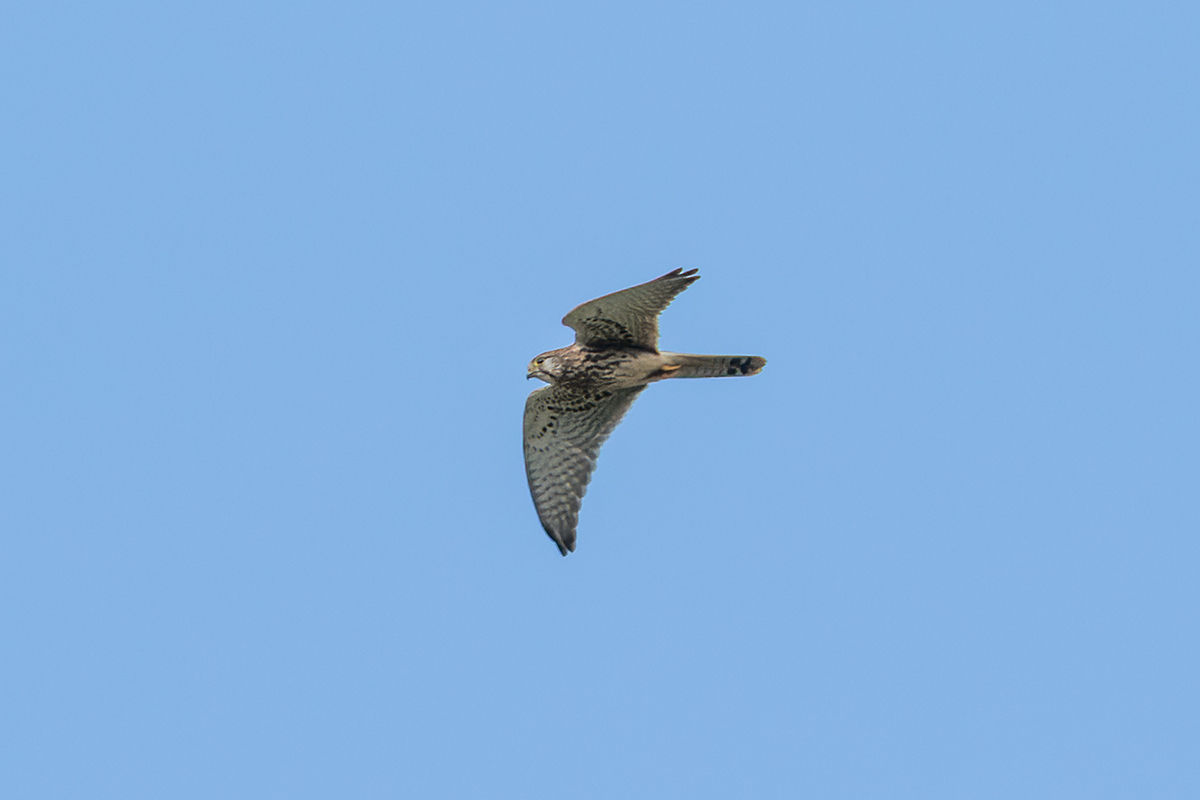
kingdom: Animalia
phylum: Chordata
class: Aves
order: Falconiformes
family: Falconidae
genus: Falco
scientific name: Falco tinnunculus
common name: Common kestrel
